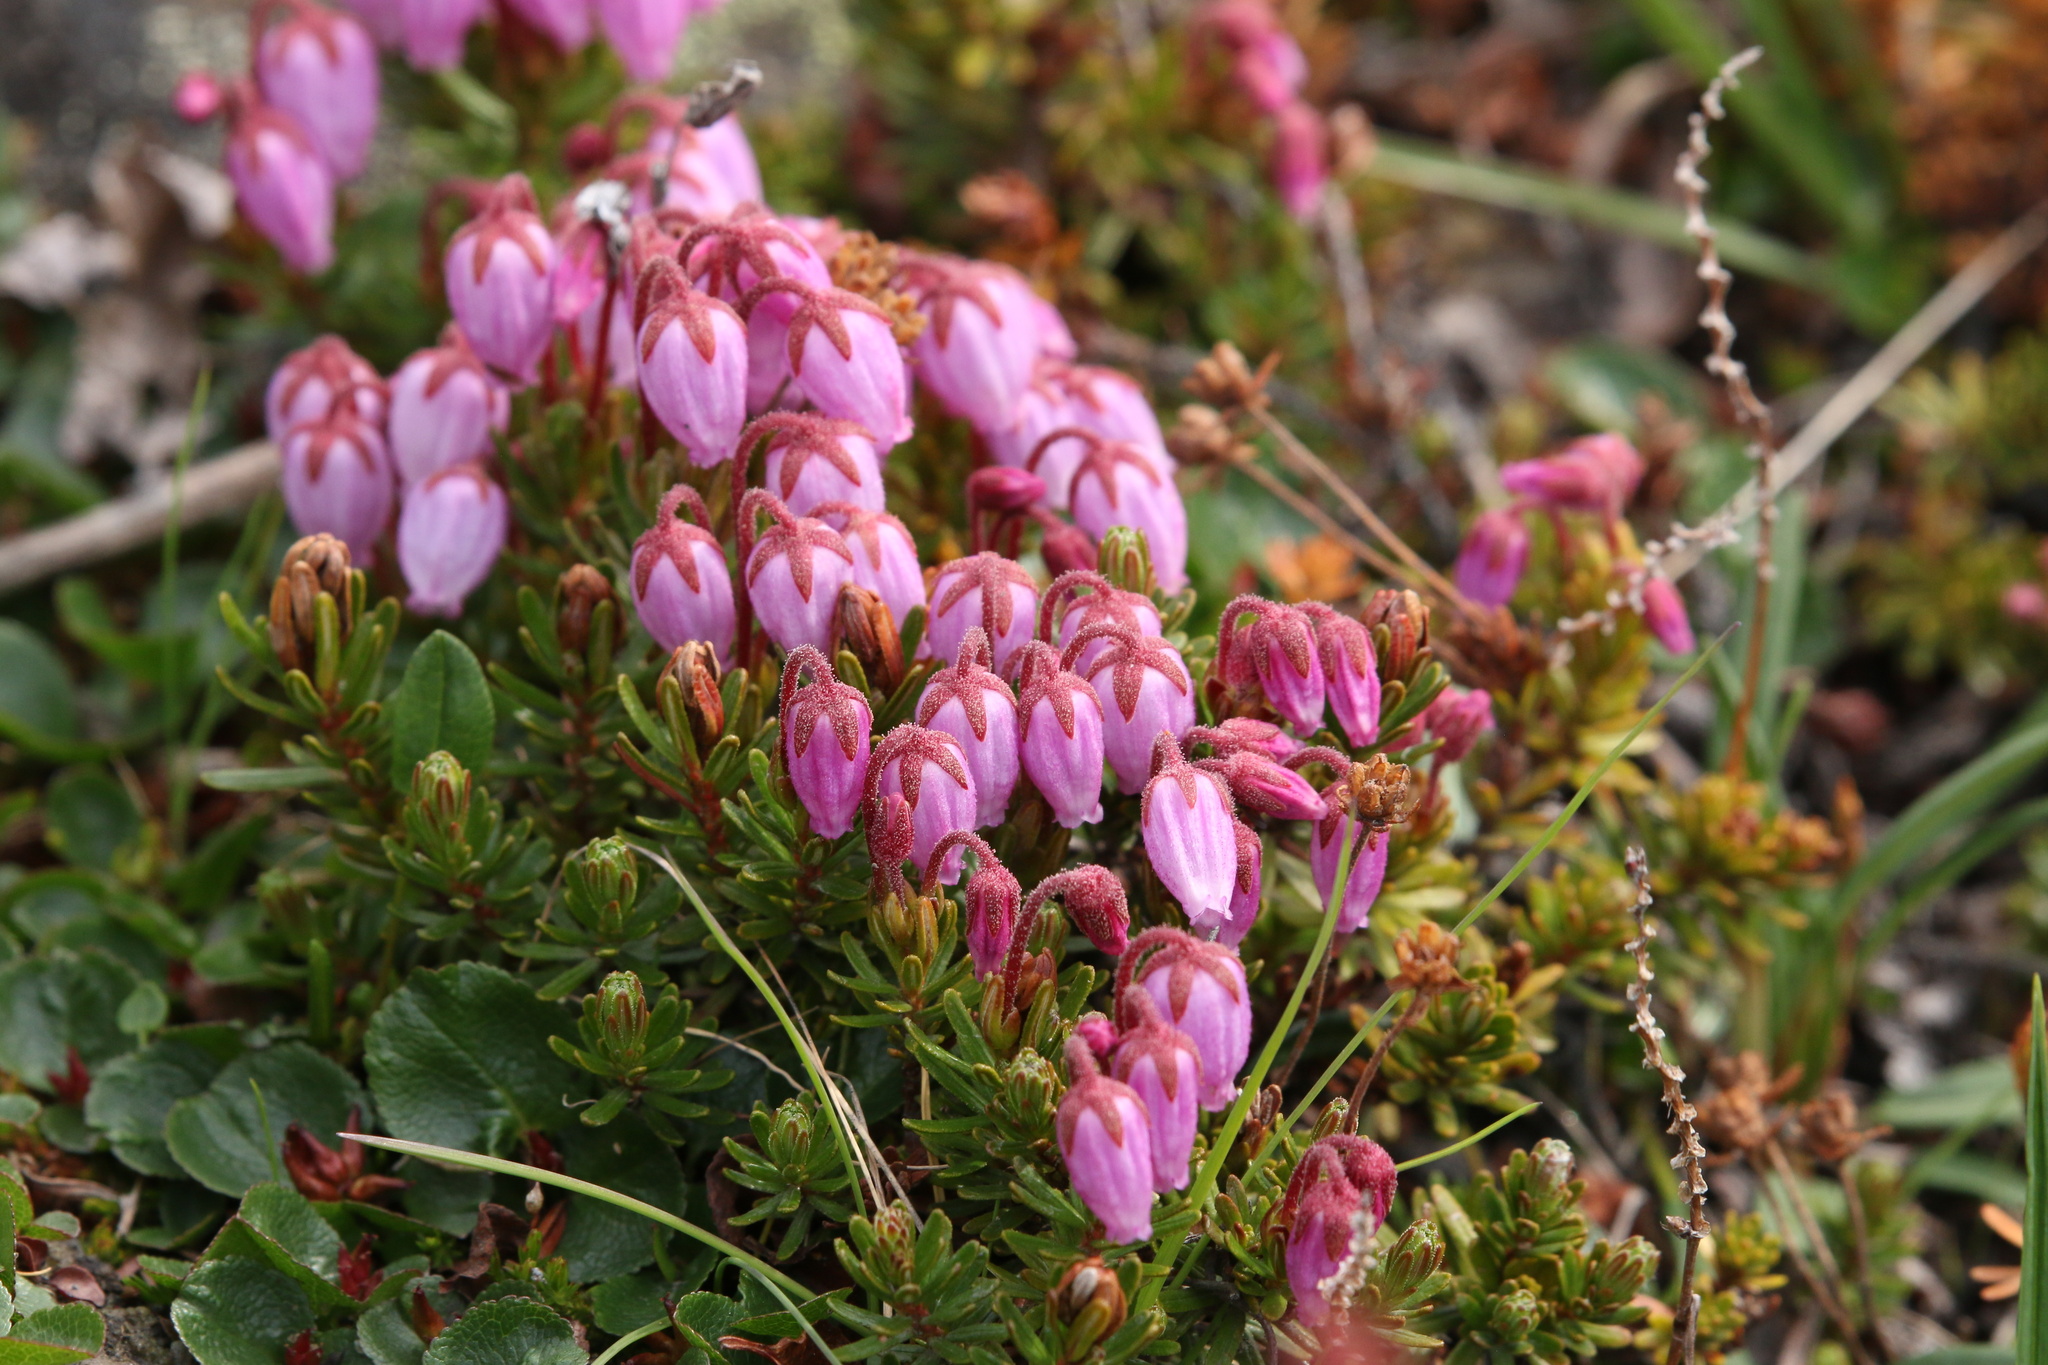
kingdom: Plantae
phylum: Tracheophyta
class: Magnoliopsida
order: Ericales
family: Ericaceae
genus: Phyllodoce
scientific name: Phyllodoce caerulea
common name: Blue heath
